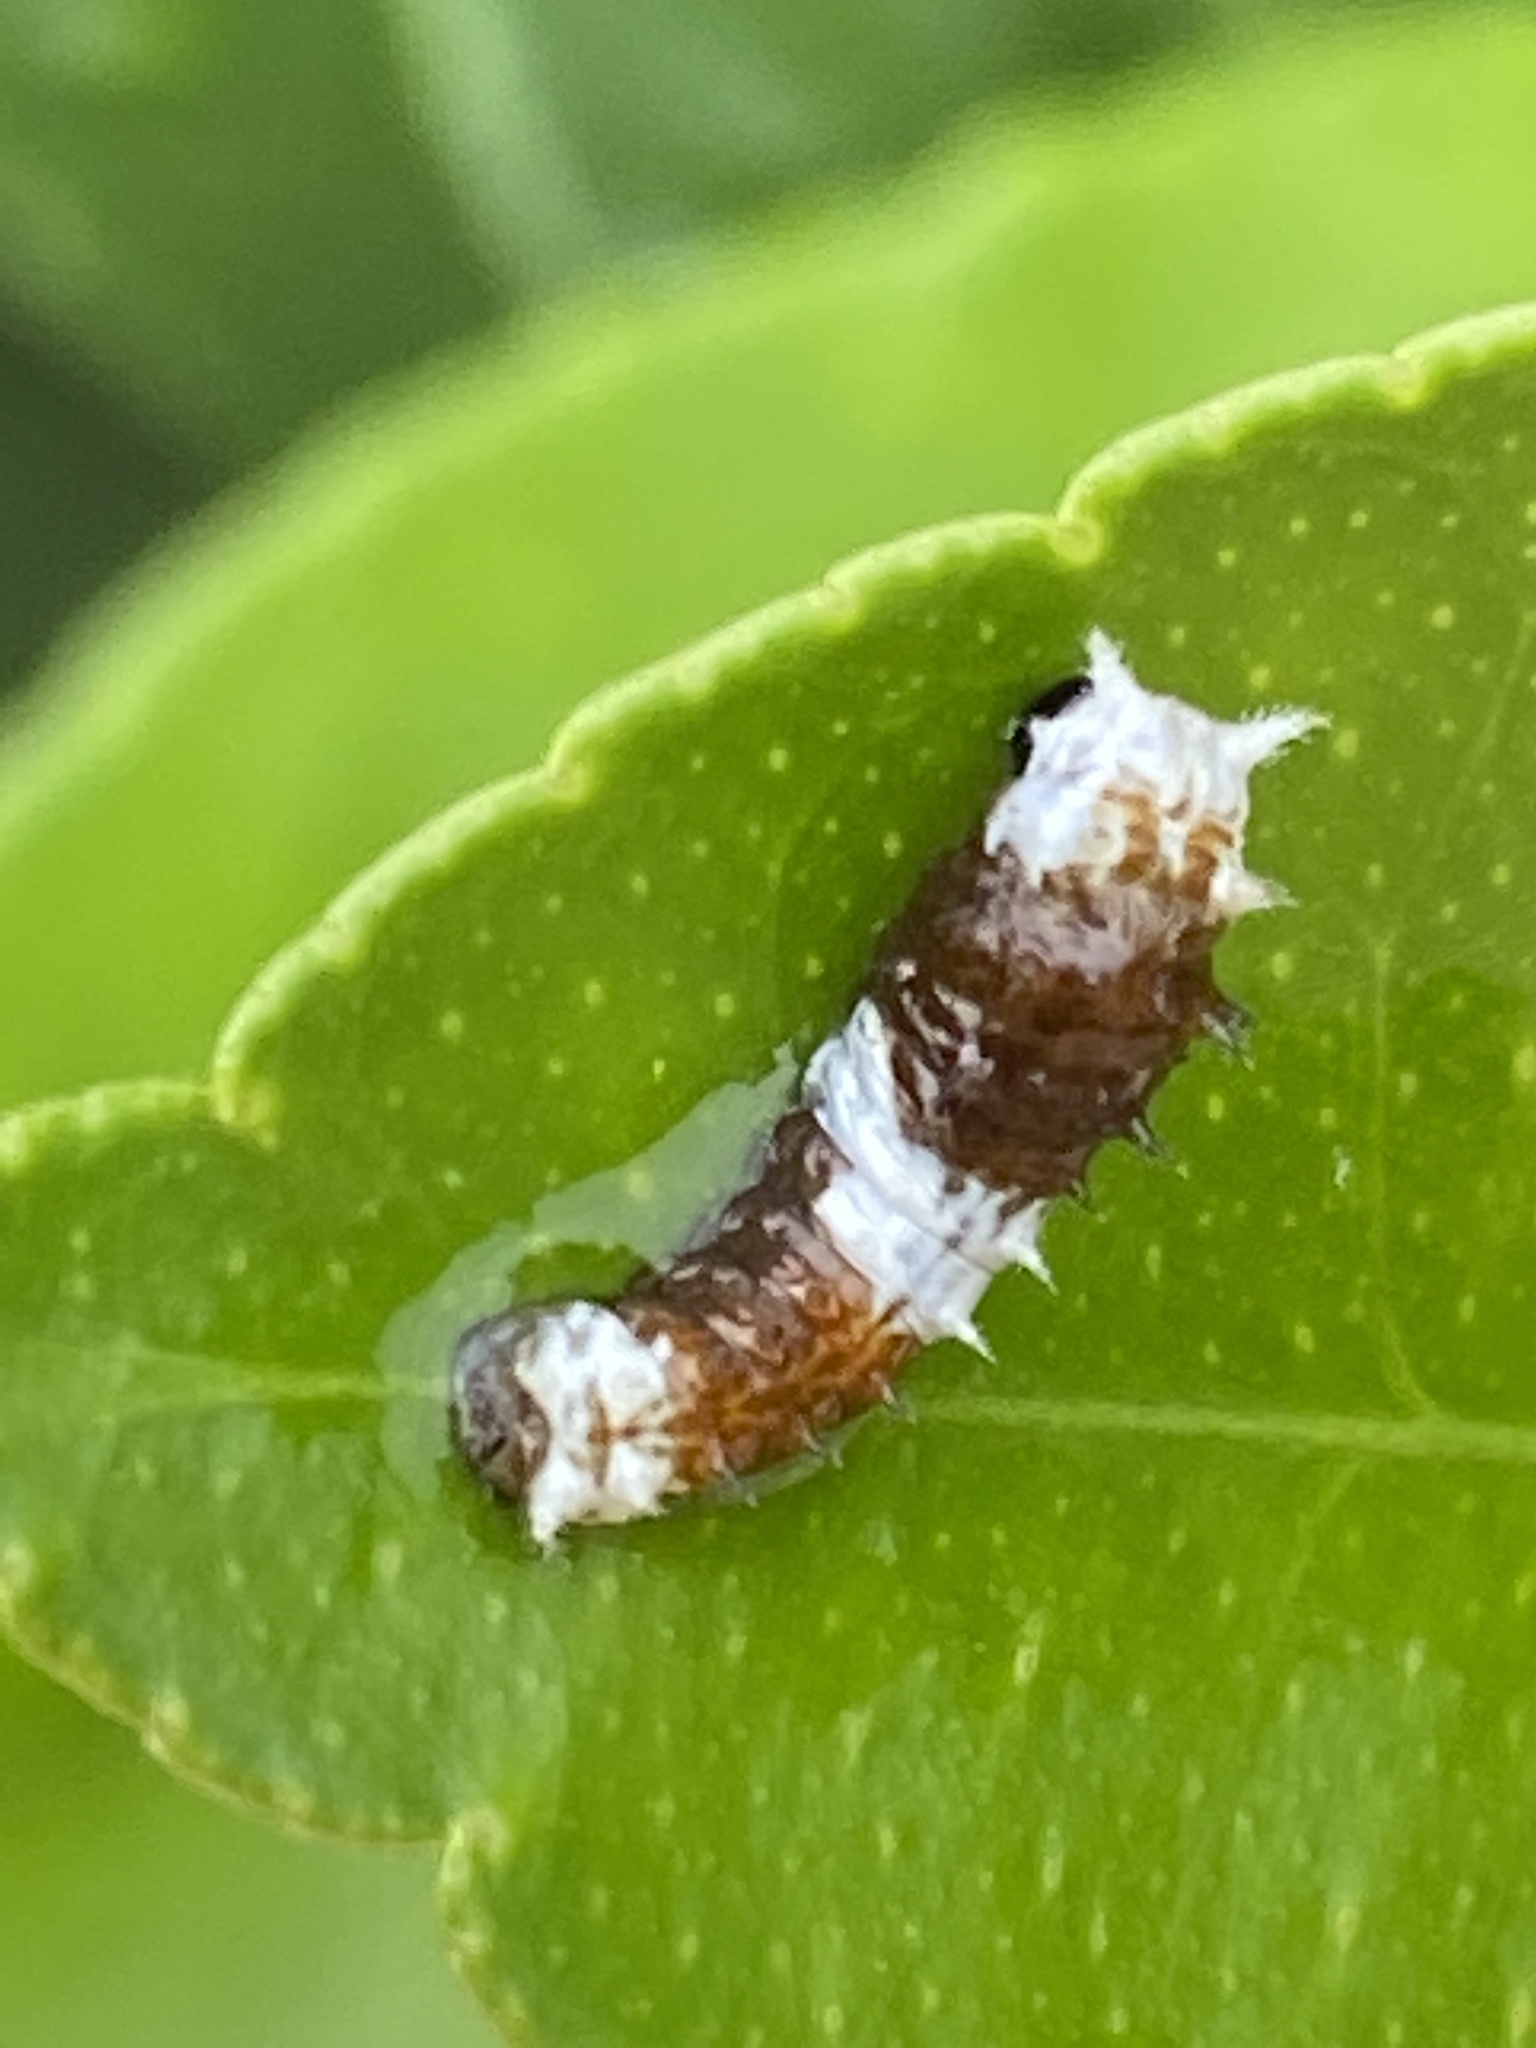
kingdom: Animalia
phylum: Arthropoda
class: Insecta
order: Lepidoptera
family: Papilionidae
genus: Papilio
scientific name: Papilio aegeus
